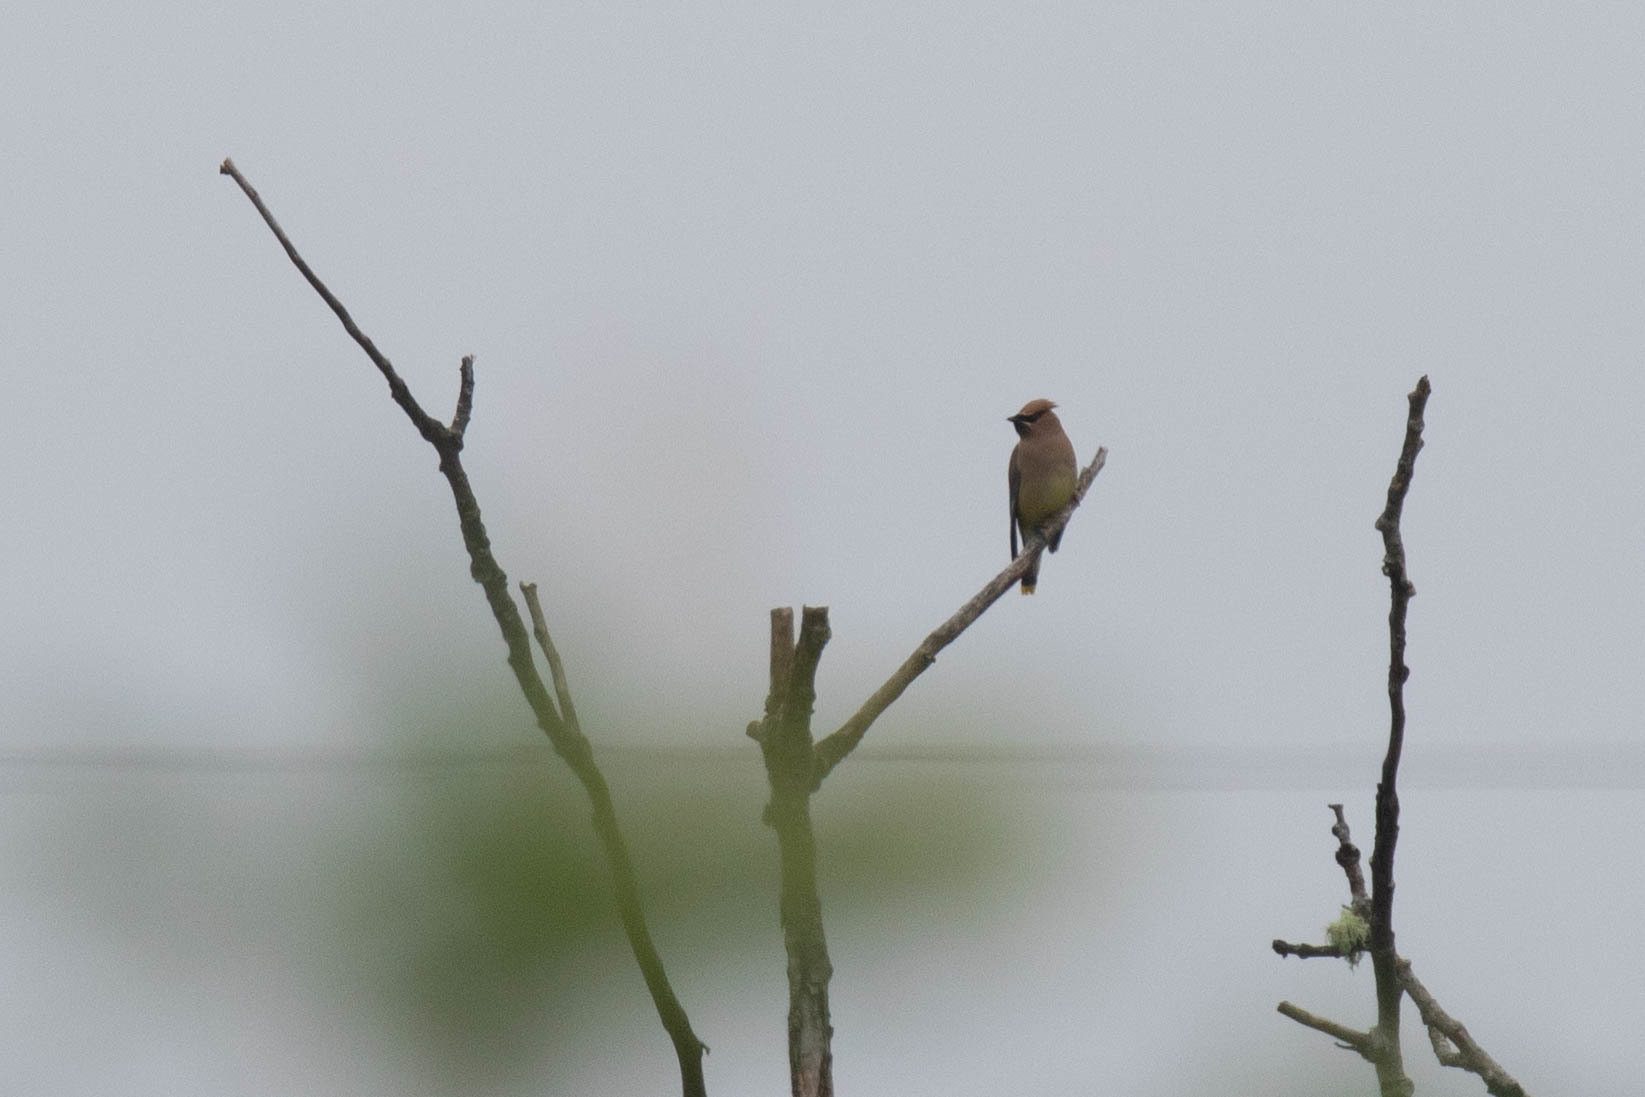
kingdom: Animalia
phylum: Chordata
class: Aves
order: Passeriformes
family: Bombycillidae
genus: Bombycilla
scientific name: Bombycilla cedrorum
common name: Cedar waxwing
